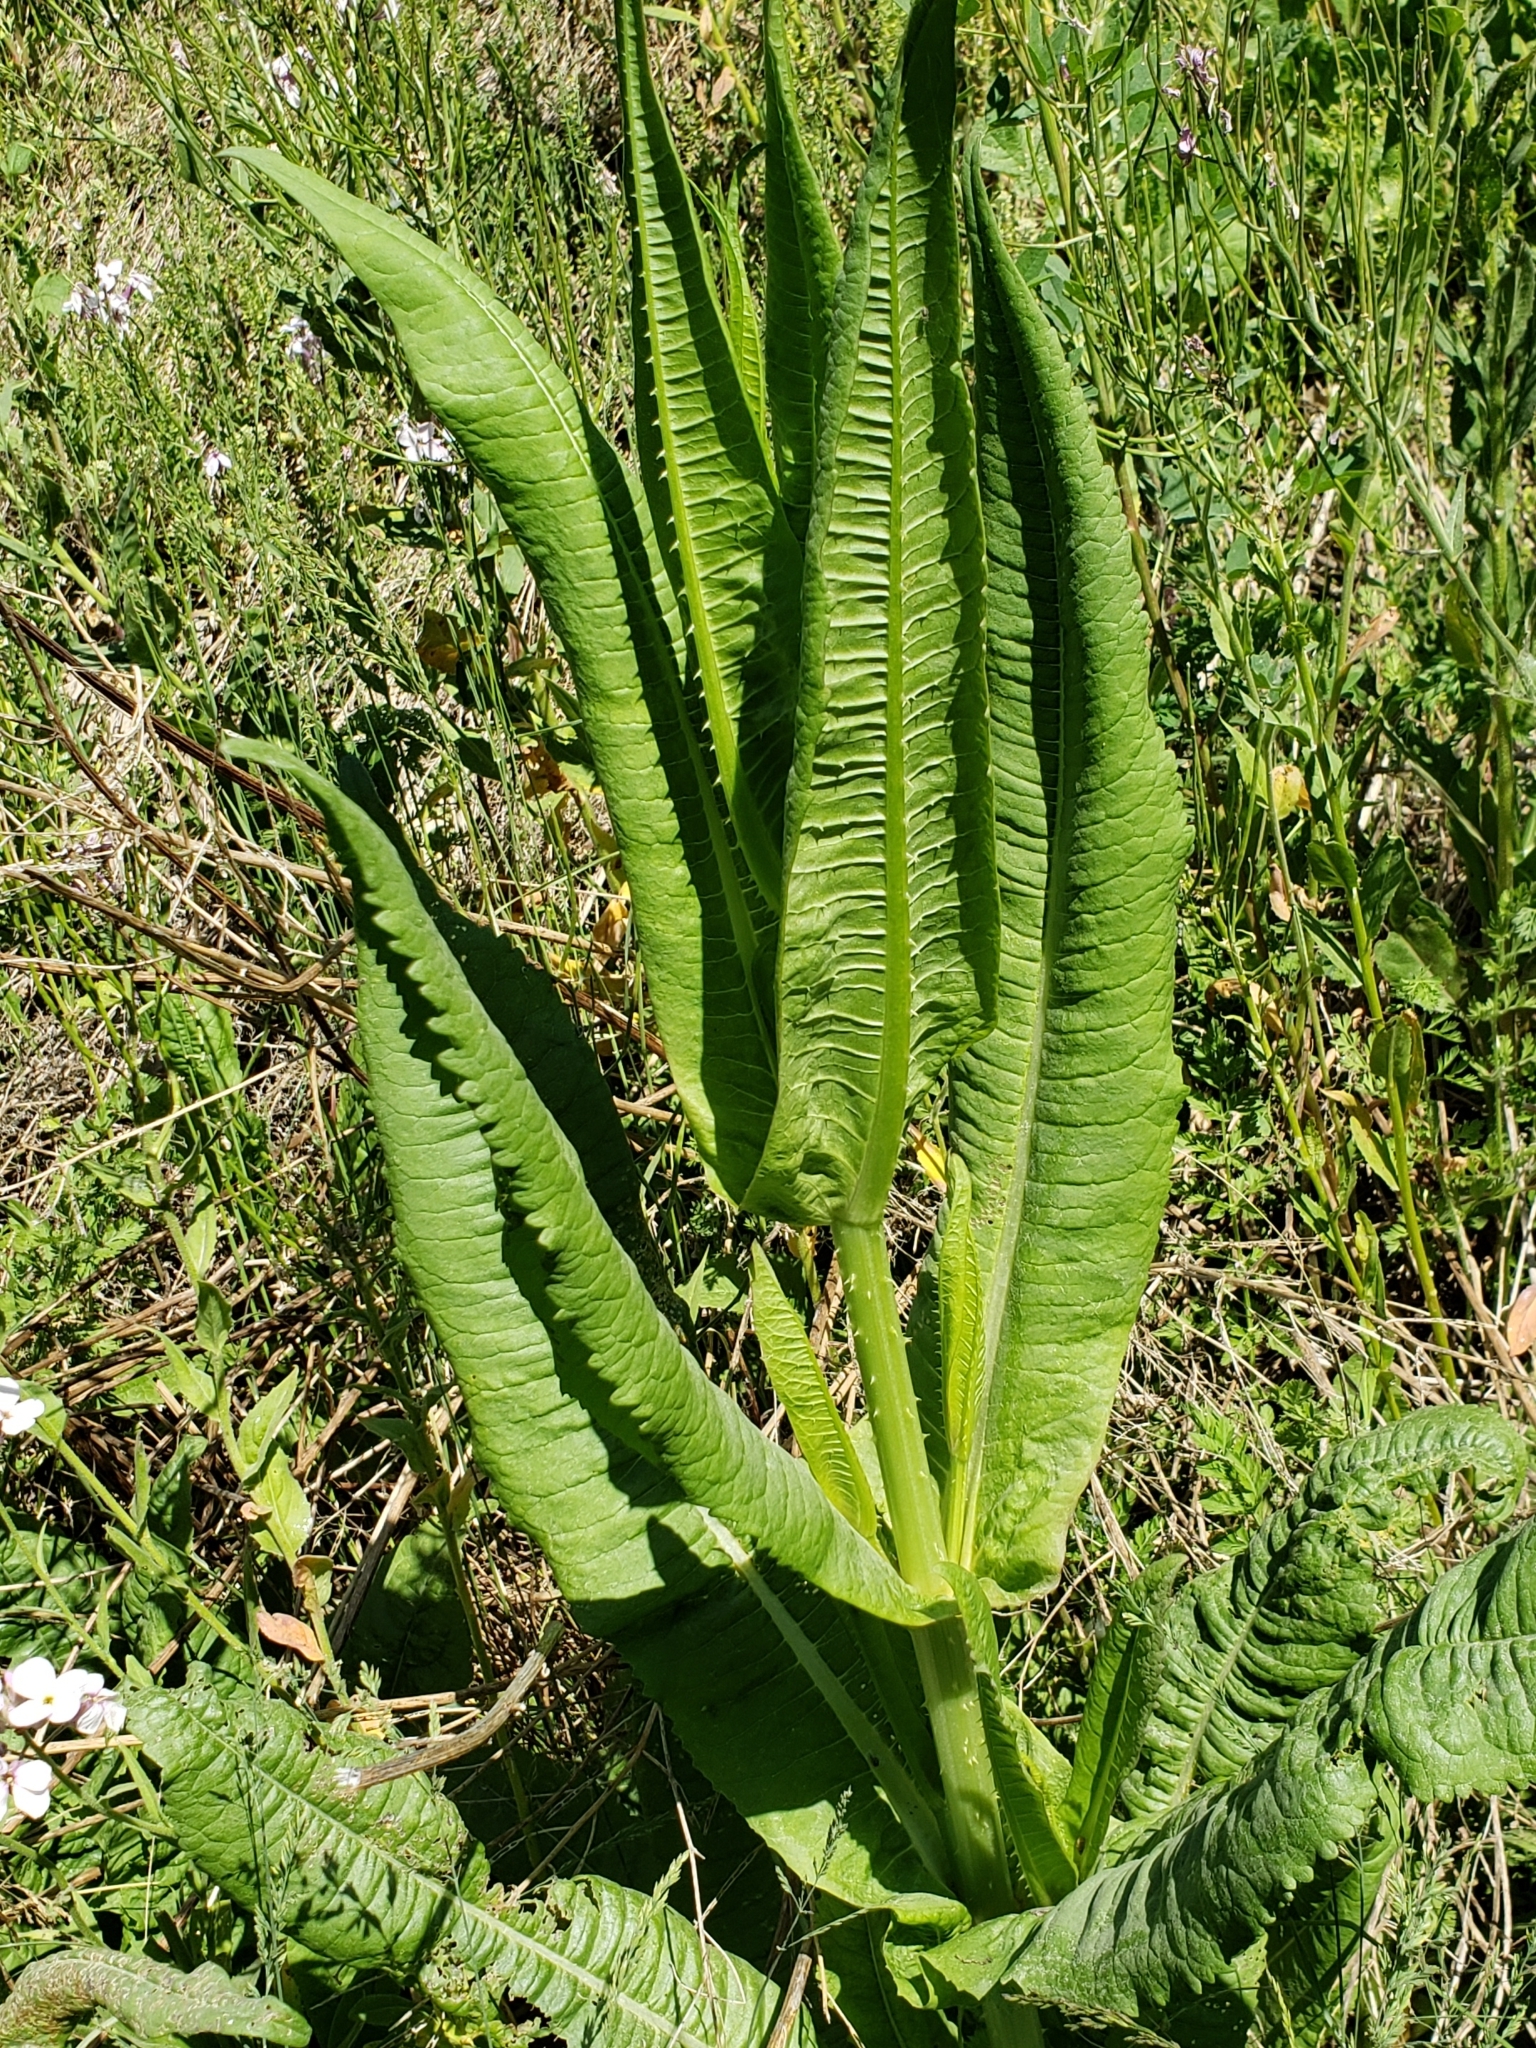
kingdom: Plantae
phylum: Tracheophyta
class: Magnoliopsida
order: Dipsacales
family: Caprifoliaceae
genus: Dipsacus
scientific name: Dipsacus fullonum
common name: Teasel
